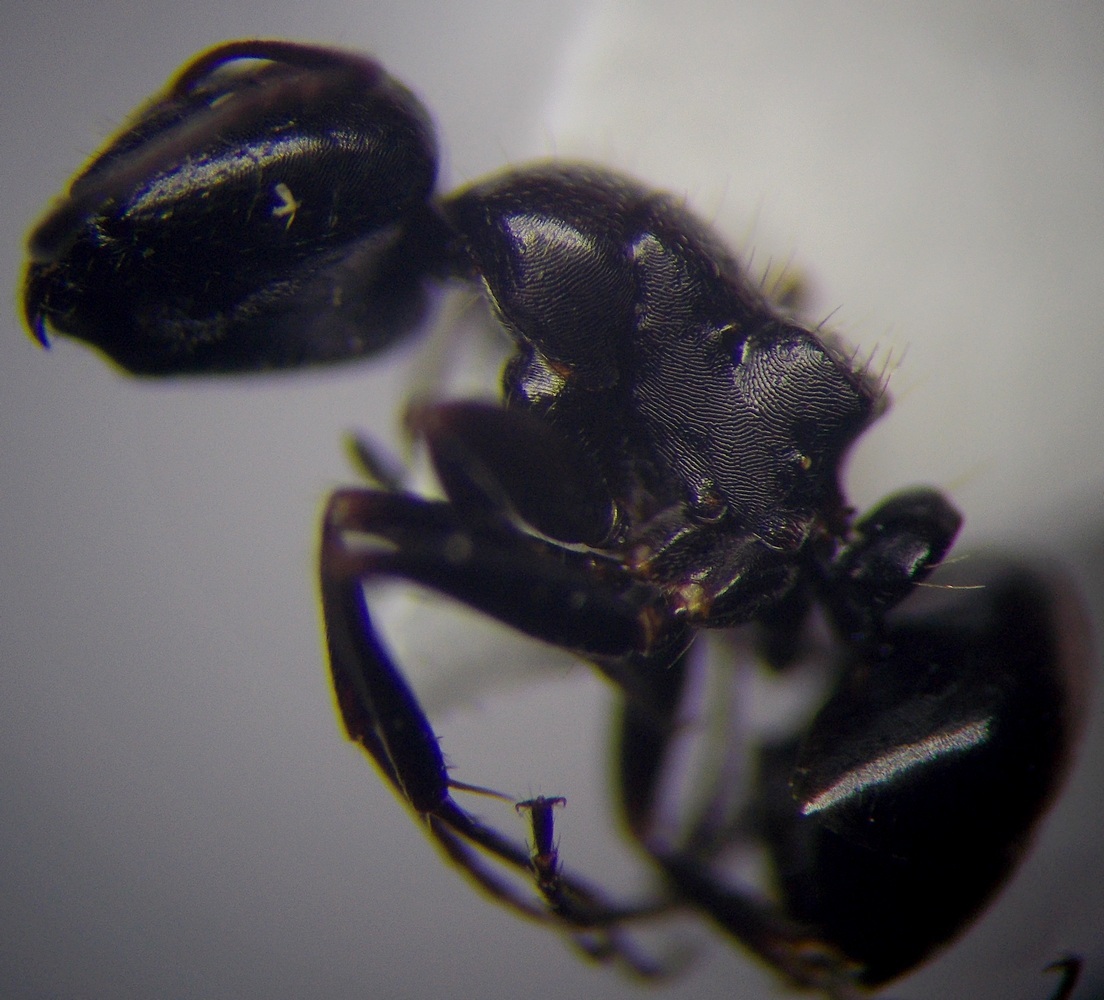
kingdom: Animalia
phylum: Arthropoda
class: Insecta
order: Hymenoptera
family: Formicidae
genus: Camponotus
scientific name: Camponotus piceus
